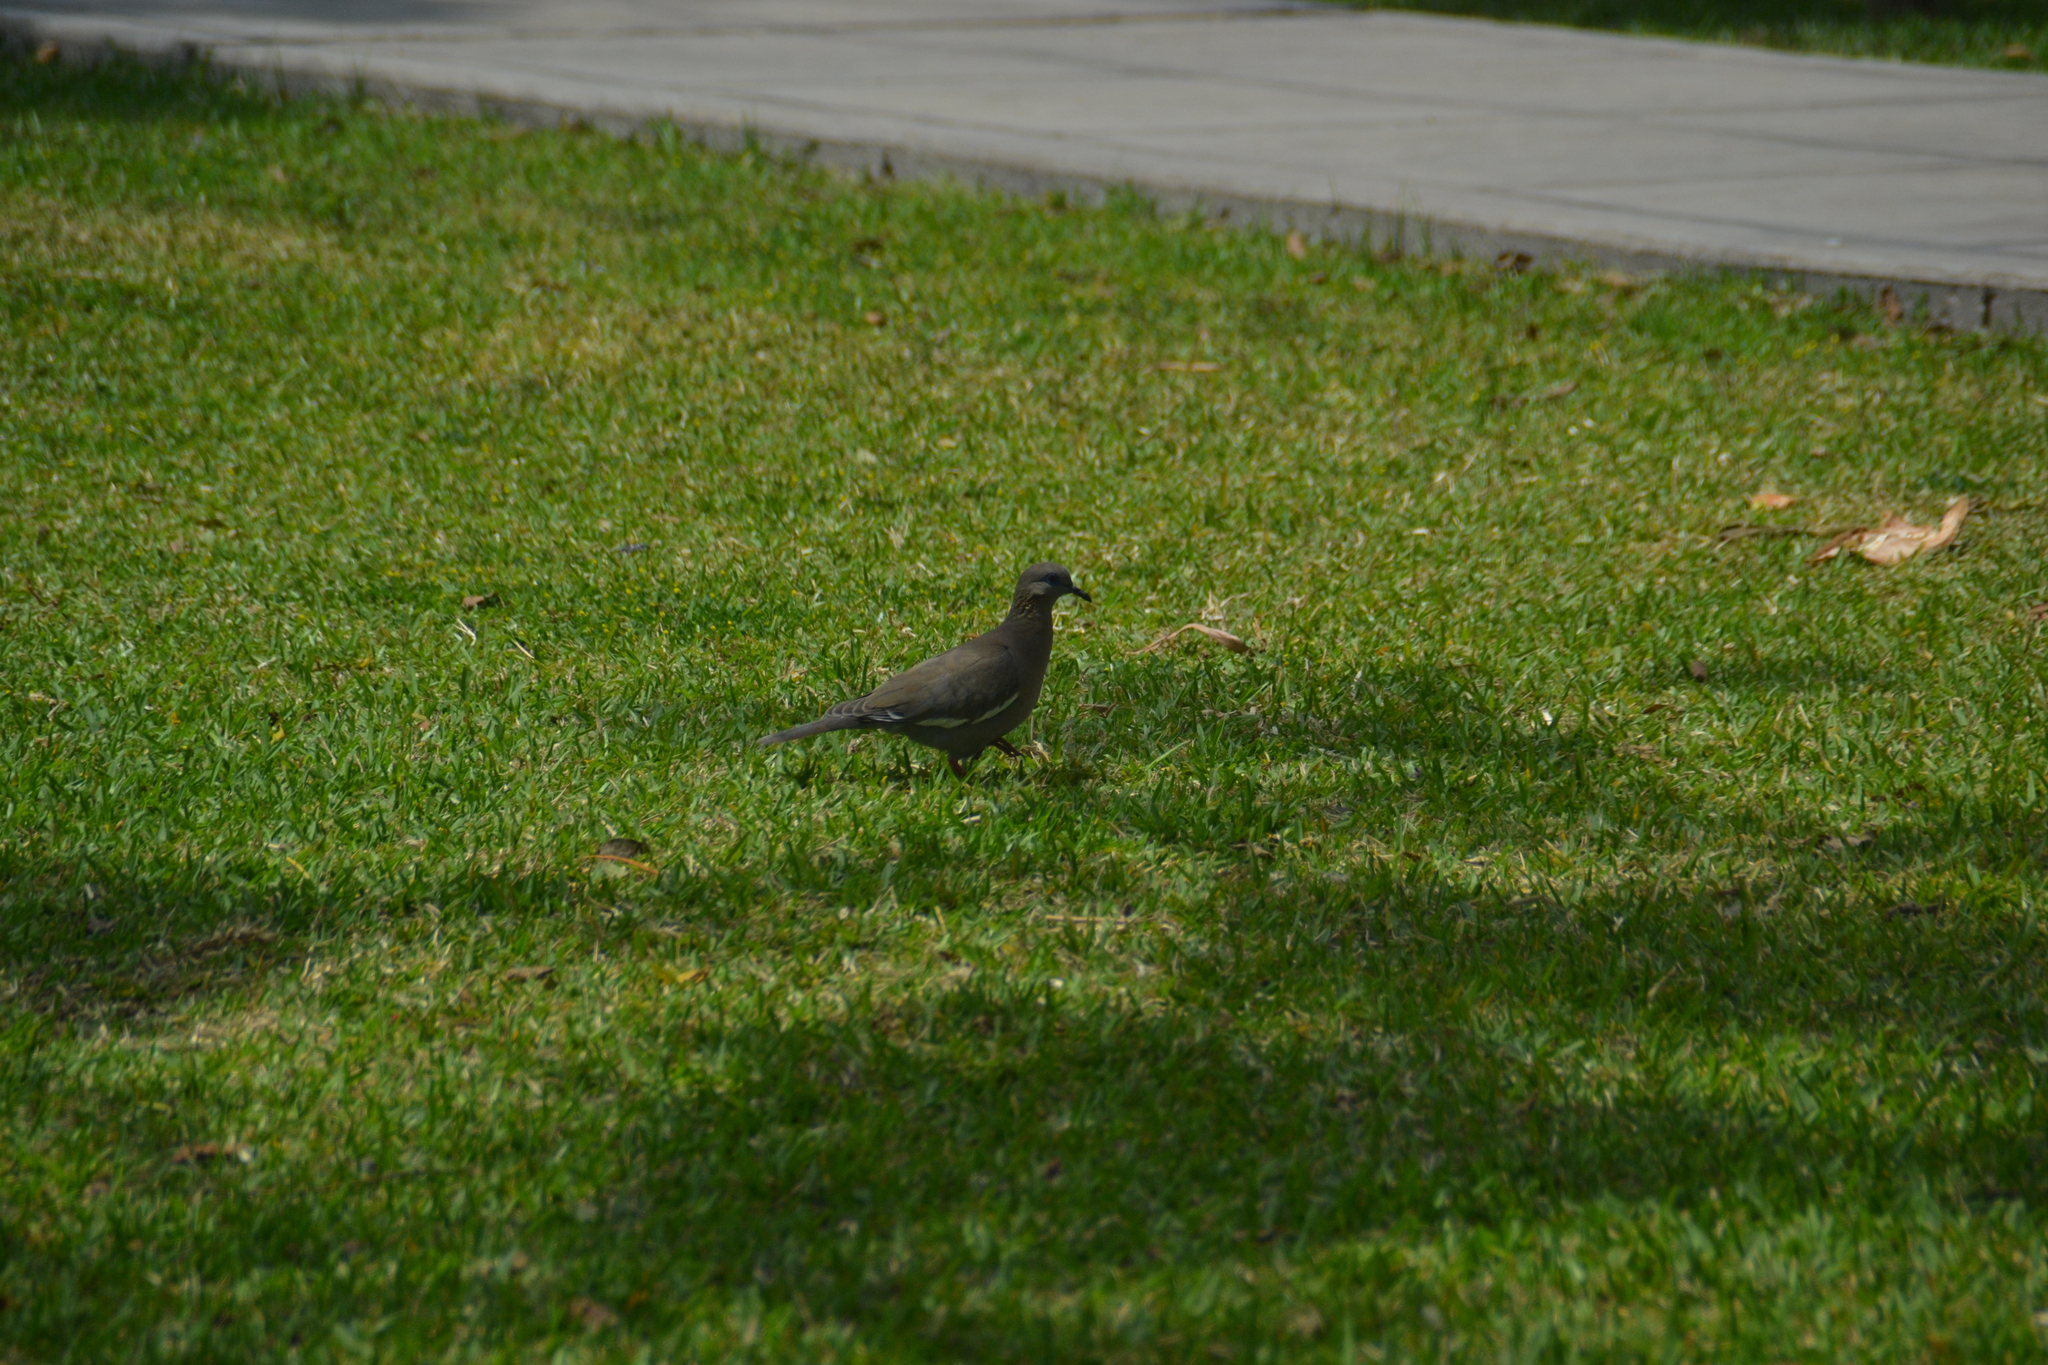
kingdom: Animalia
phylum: Chordata
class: Aves
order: Columbiformes
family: Columbidae
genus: Zenaida
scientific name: Zenaida meloda
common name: West peruvian dove
